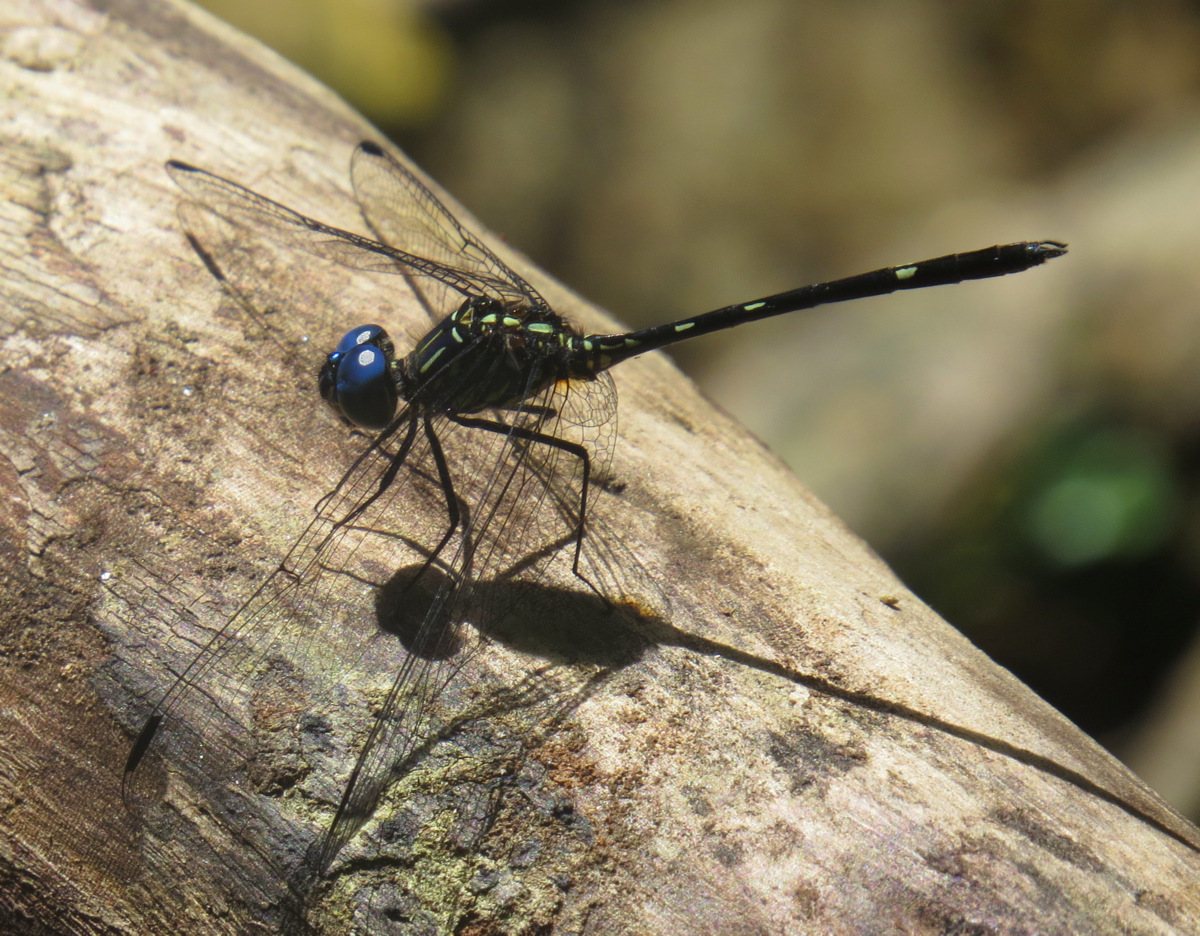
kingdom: Animalia
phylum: Arthropoda
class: Insecta
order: Odonata
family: Libellulidae
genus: Dythemis
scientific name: Dythemis nigra
